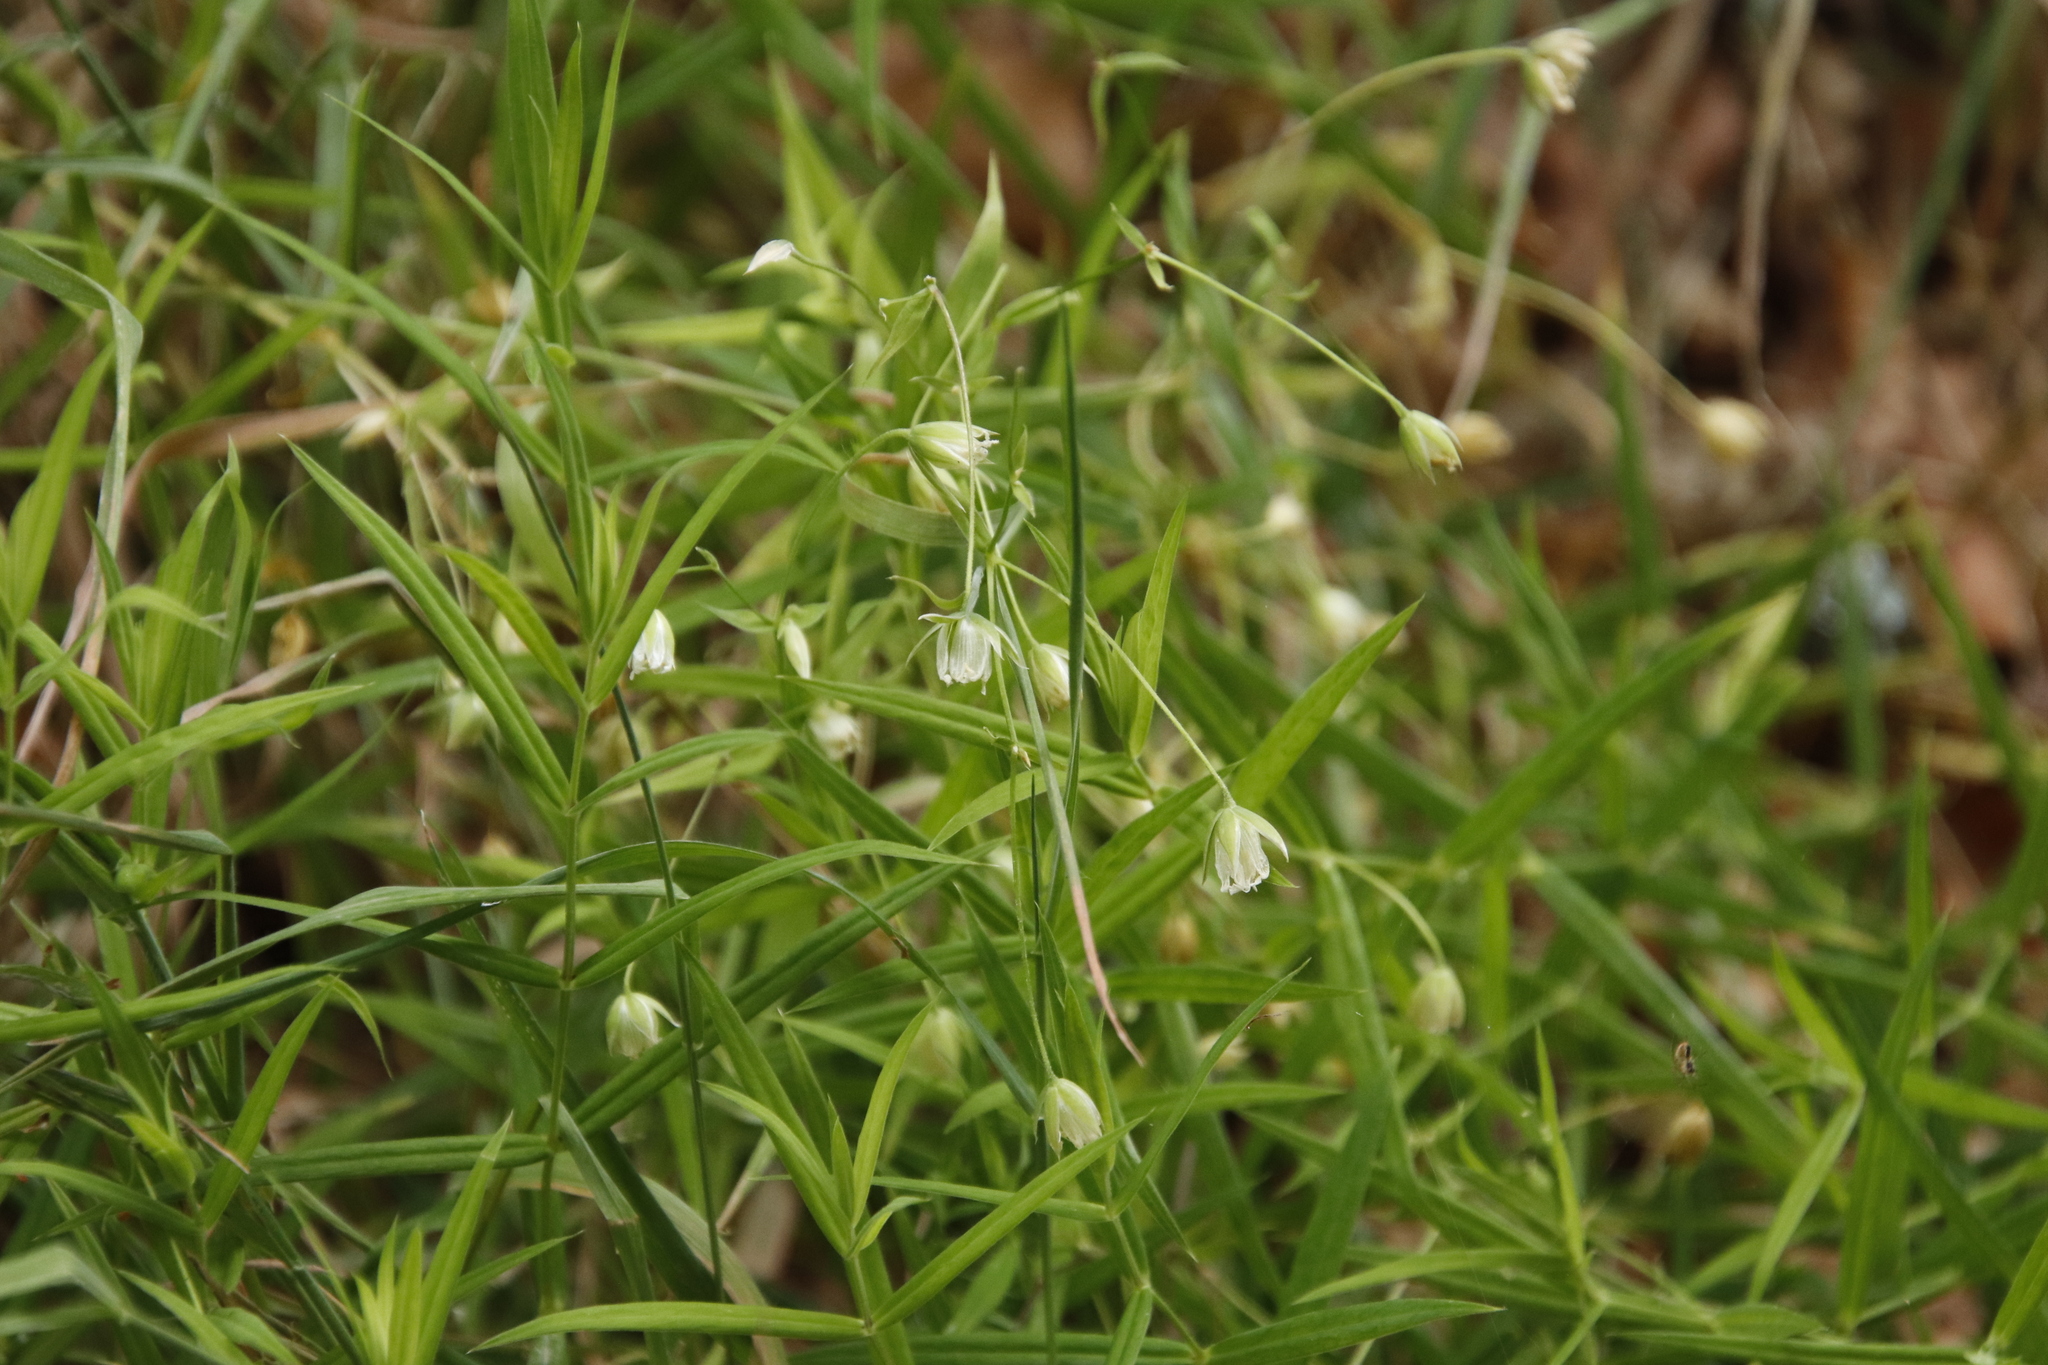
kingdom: Plantae
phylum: Tracheophyta
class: Magnoliopsida
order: Caryophyllales
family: Caryophyllaceae
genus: Rabelera
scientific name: Rabelera holostea
